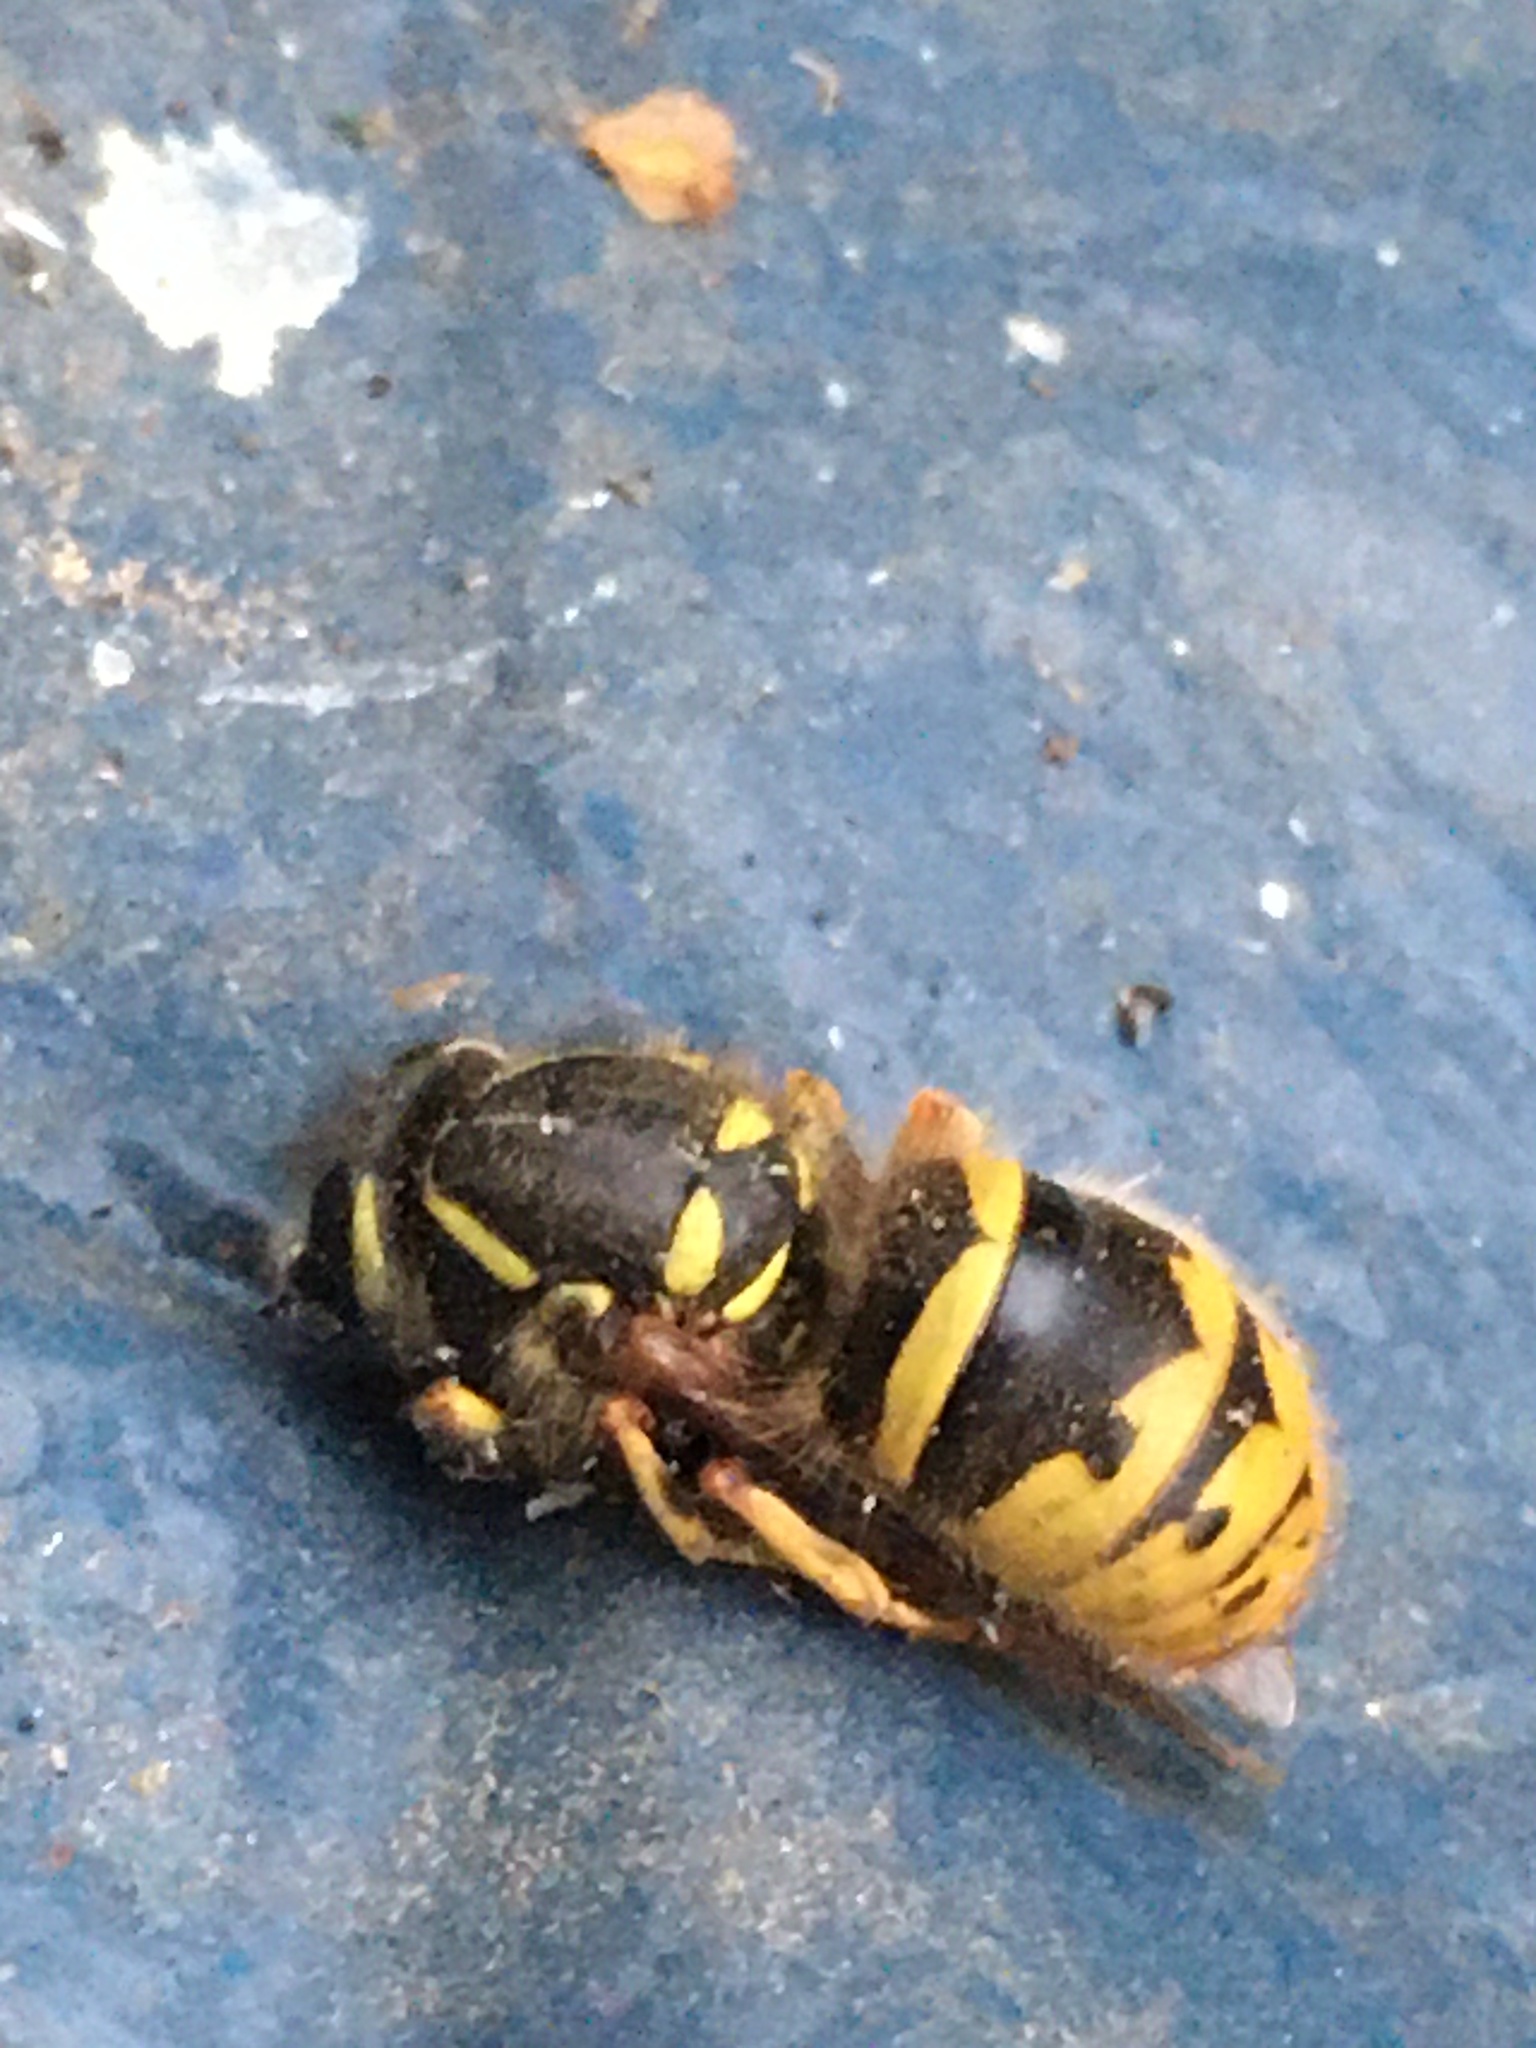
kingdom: Animalia
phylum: Arthropoda
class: Insecta
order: Hymenoptera
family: Vespidae
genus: Vespula
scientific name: Vespula vulgaris
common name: Common wasp
